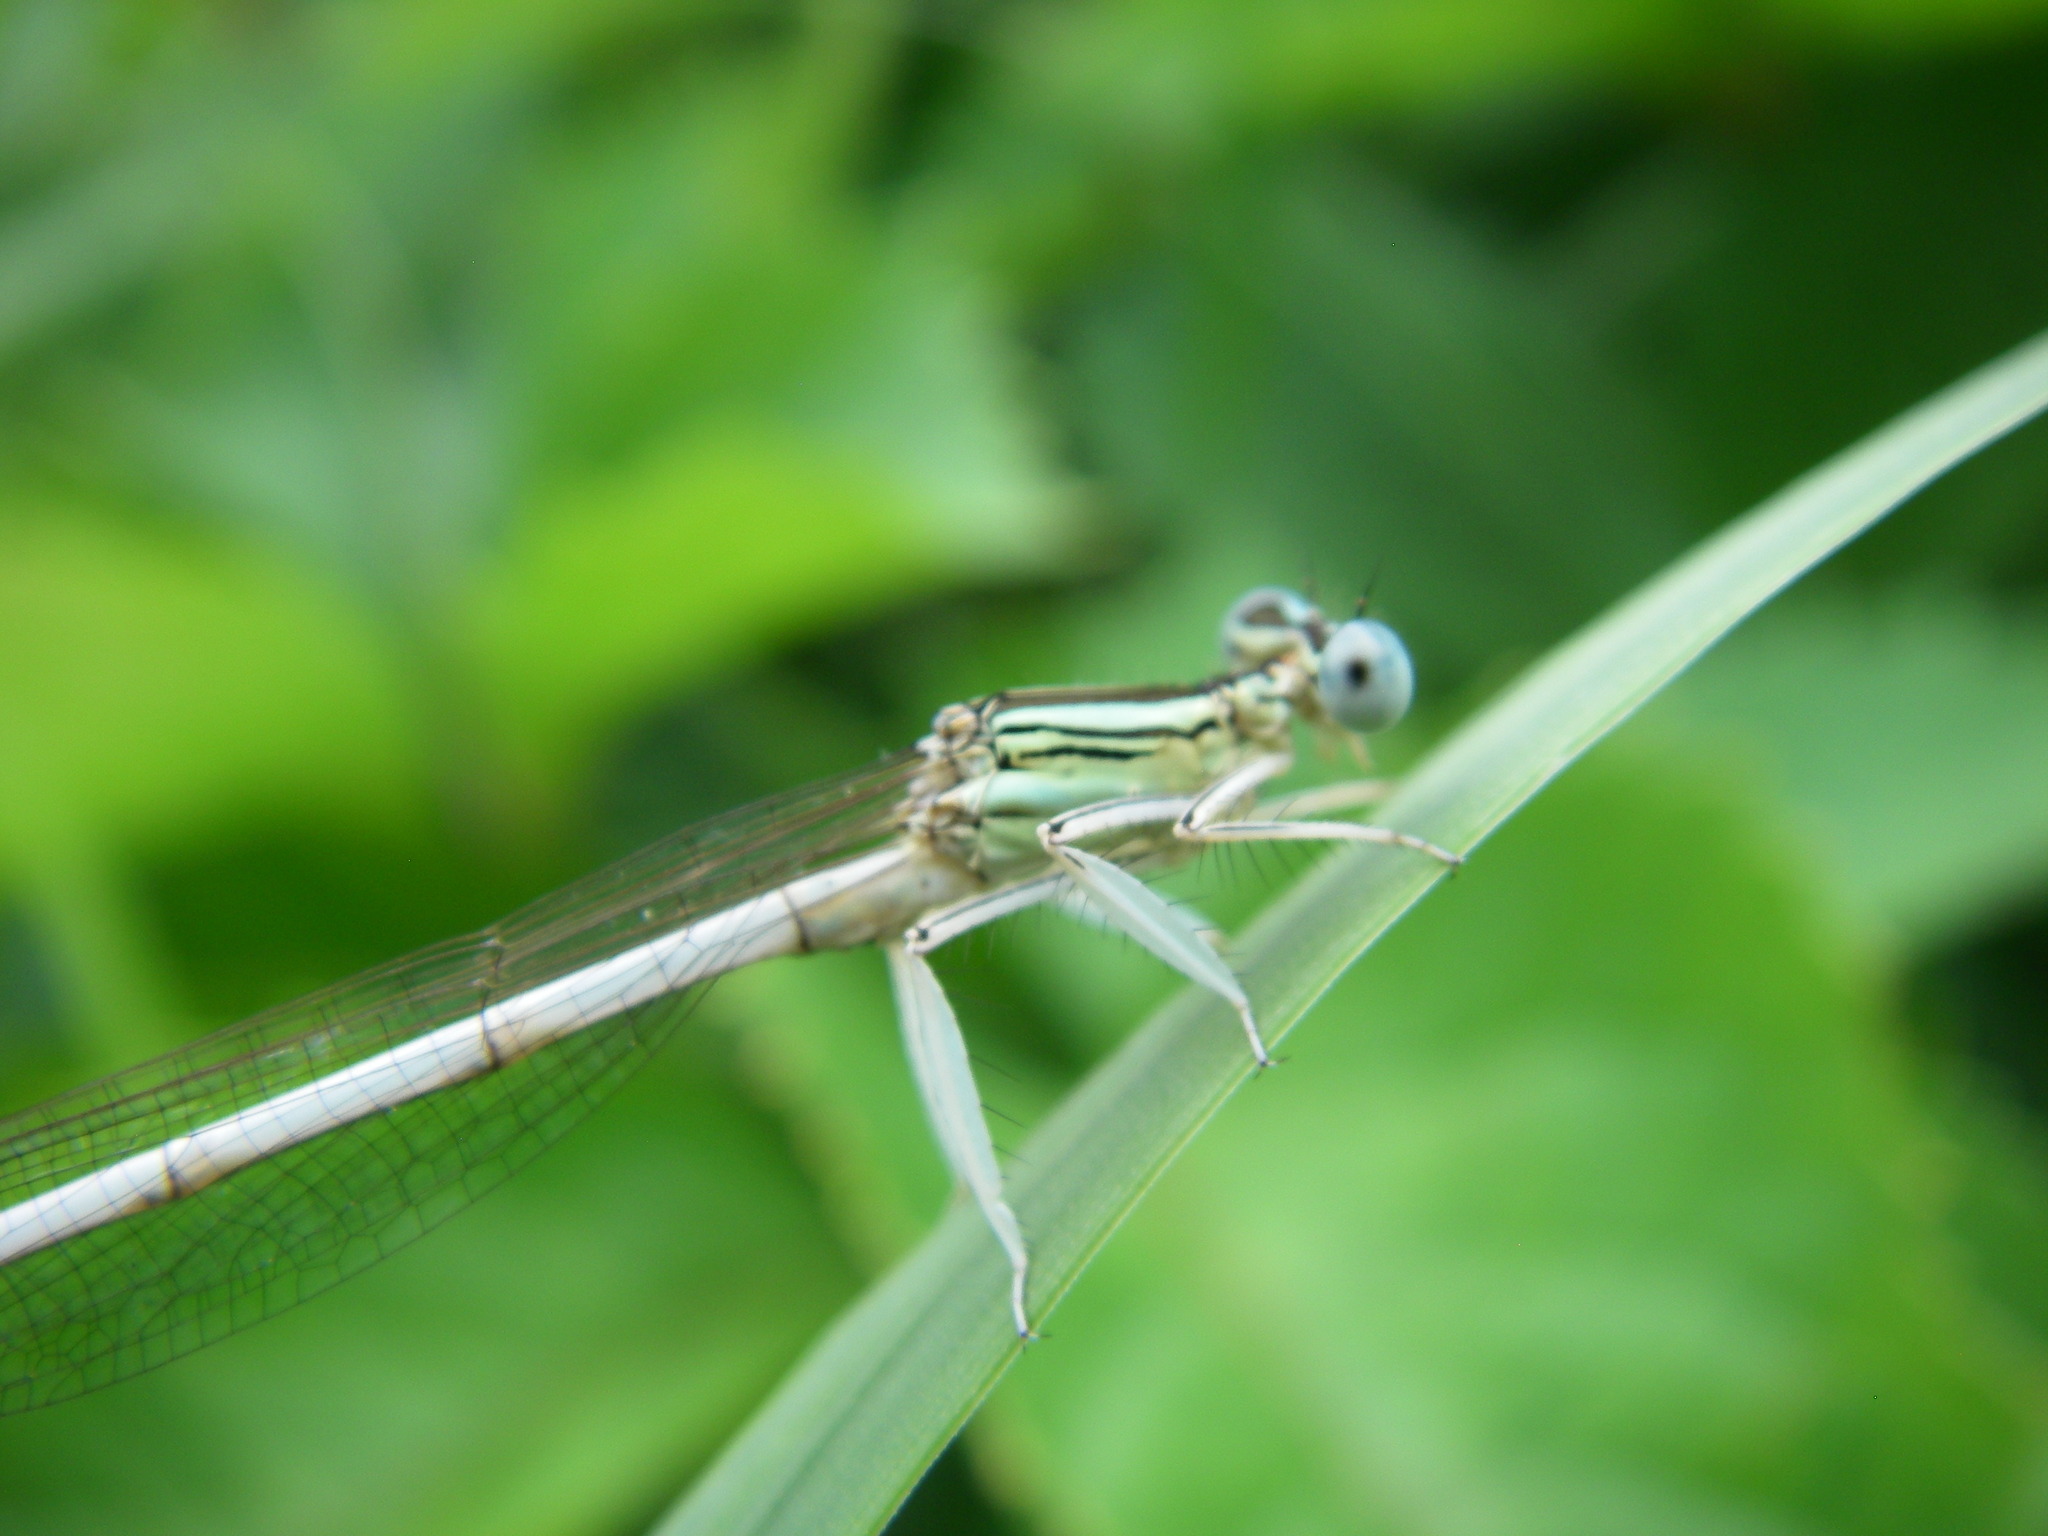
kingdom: Animalia
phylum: Arthropoda
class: Insecta
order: Odonata
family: Platycnemididae
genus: Platycnemis
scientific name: Platycnemis latipes
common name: White featherleg
